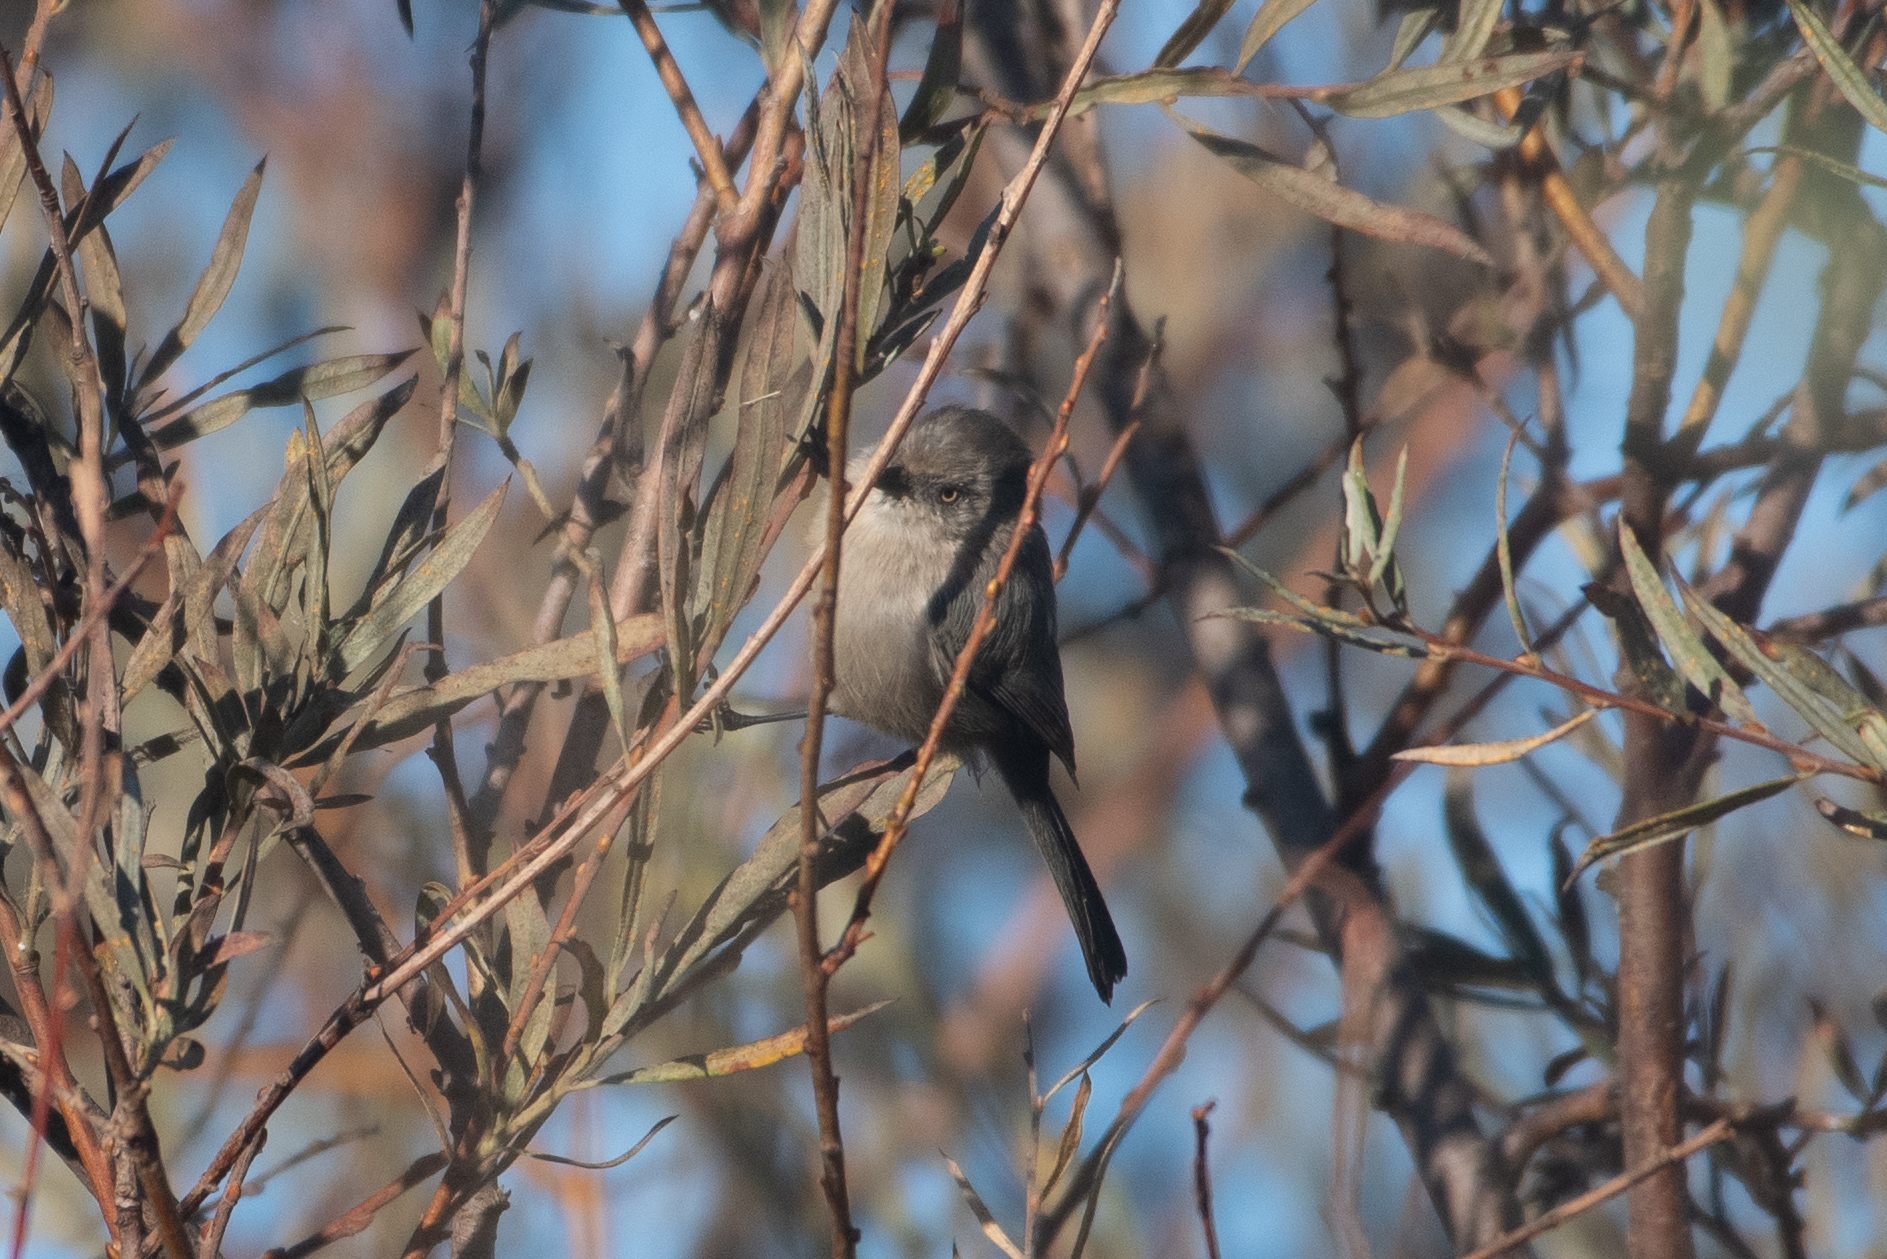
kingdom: Animalia
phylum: Chordata
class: Aves
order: Passeriformes
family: Aegithalidae
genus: Psaltriparus
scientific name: Psaltriparus minimus
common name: American bushtit
